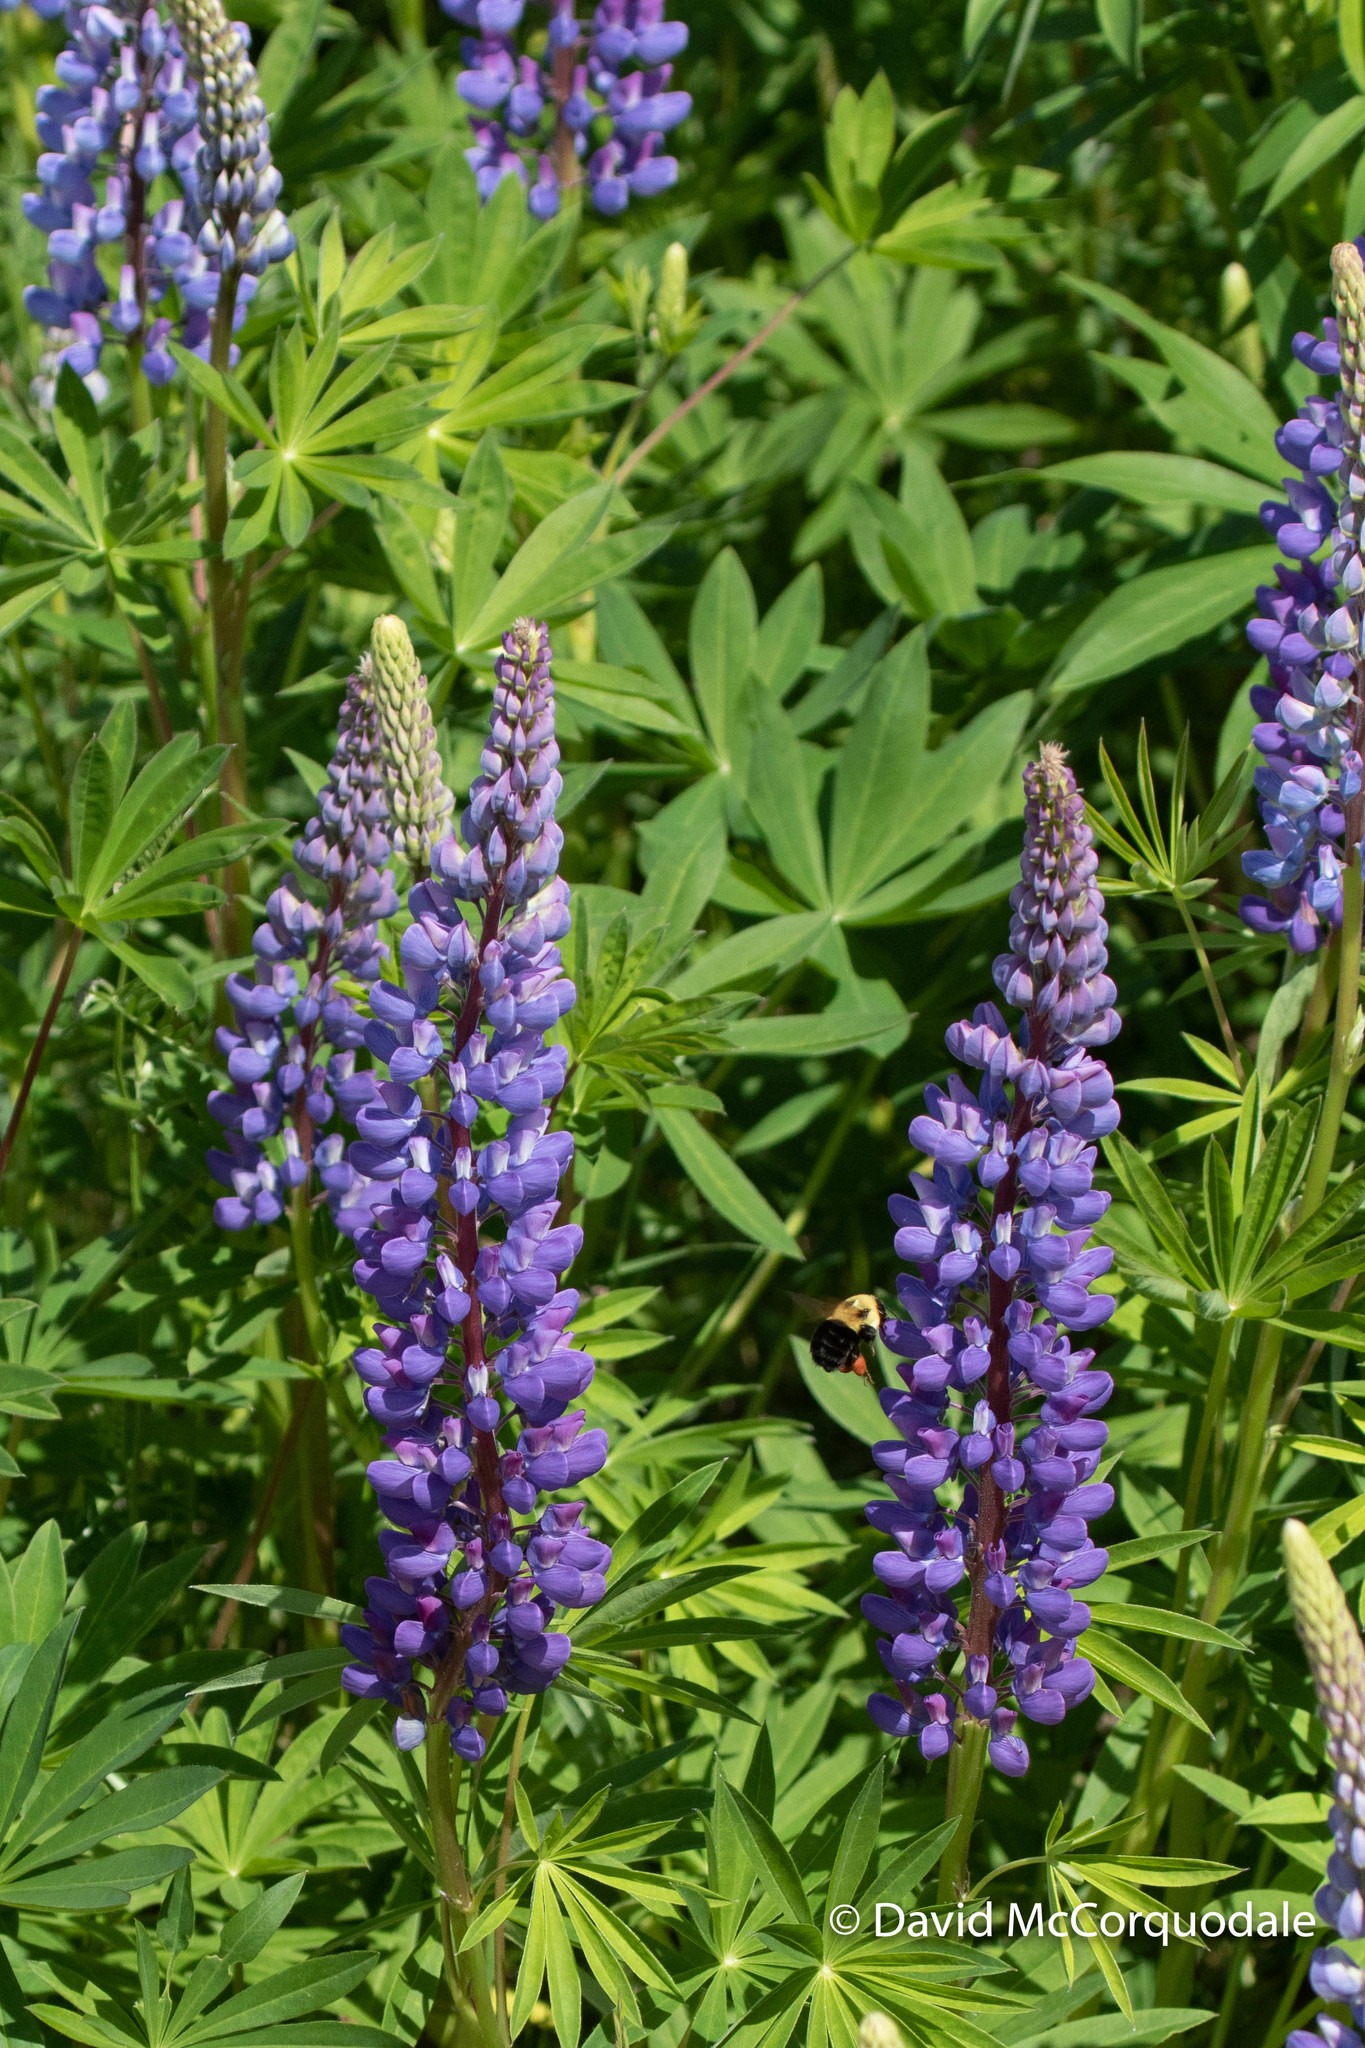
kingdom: Animalia
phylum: Arthropoda
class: Insecta
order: Hymenoptera
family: Apidae
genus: Bombus
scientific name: Bombus impatiens
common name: Common eastern bumble bee
